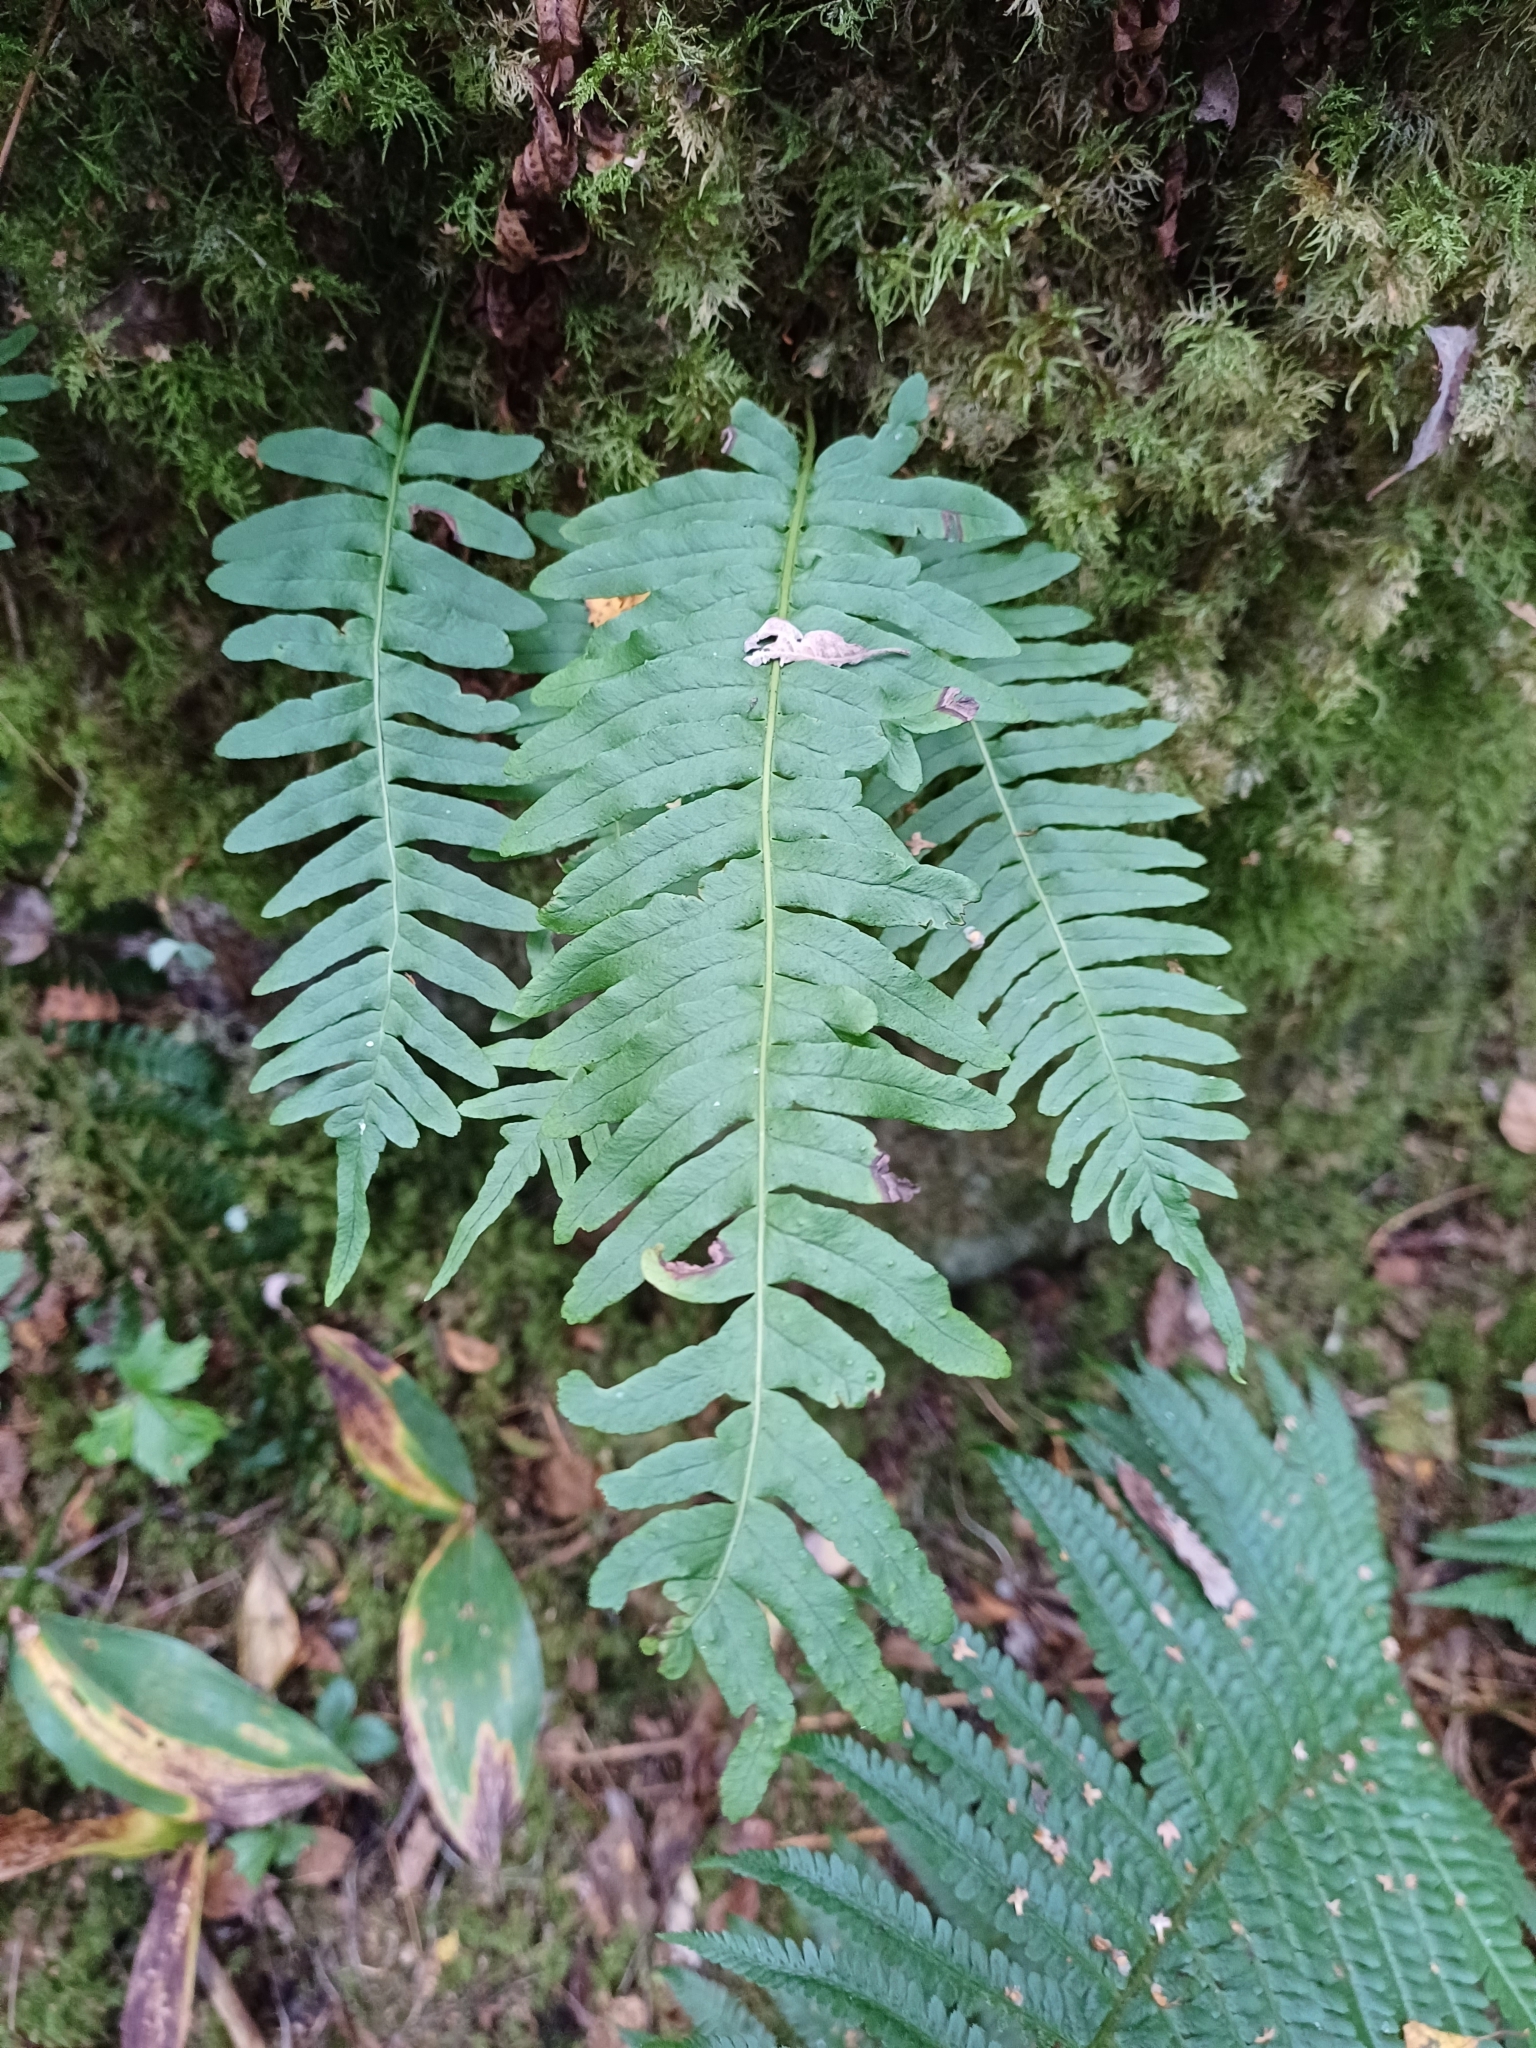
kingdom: Plantae
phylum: Tracheophyta
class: Polypodiopsida
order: Polypodiales
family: Polypodiaceae
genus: Polypodium
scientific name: Polypodium vulgare
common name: Common polypody
